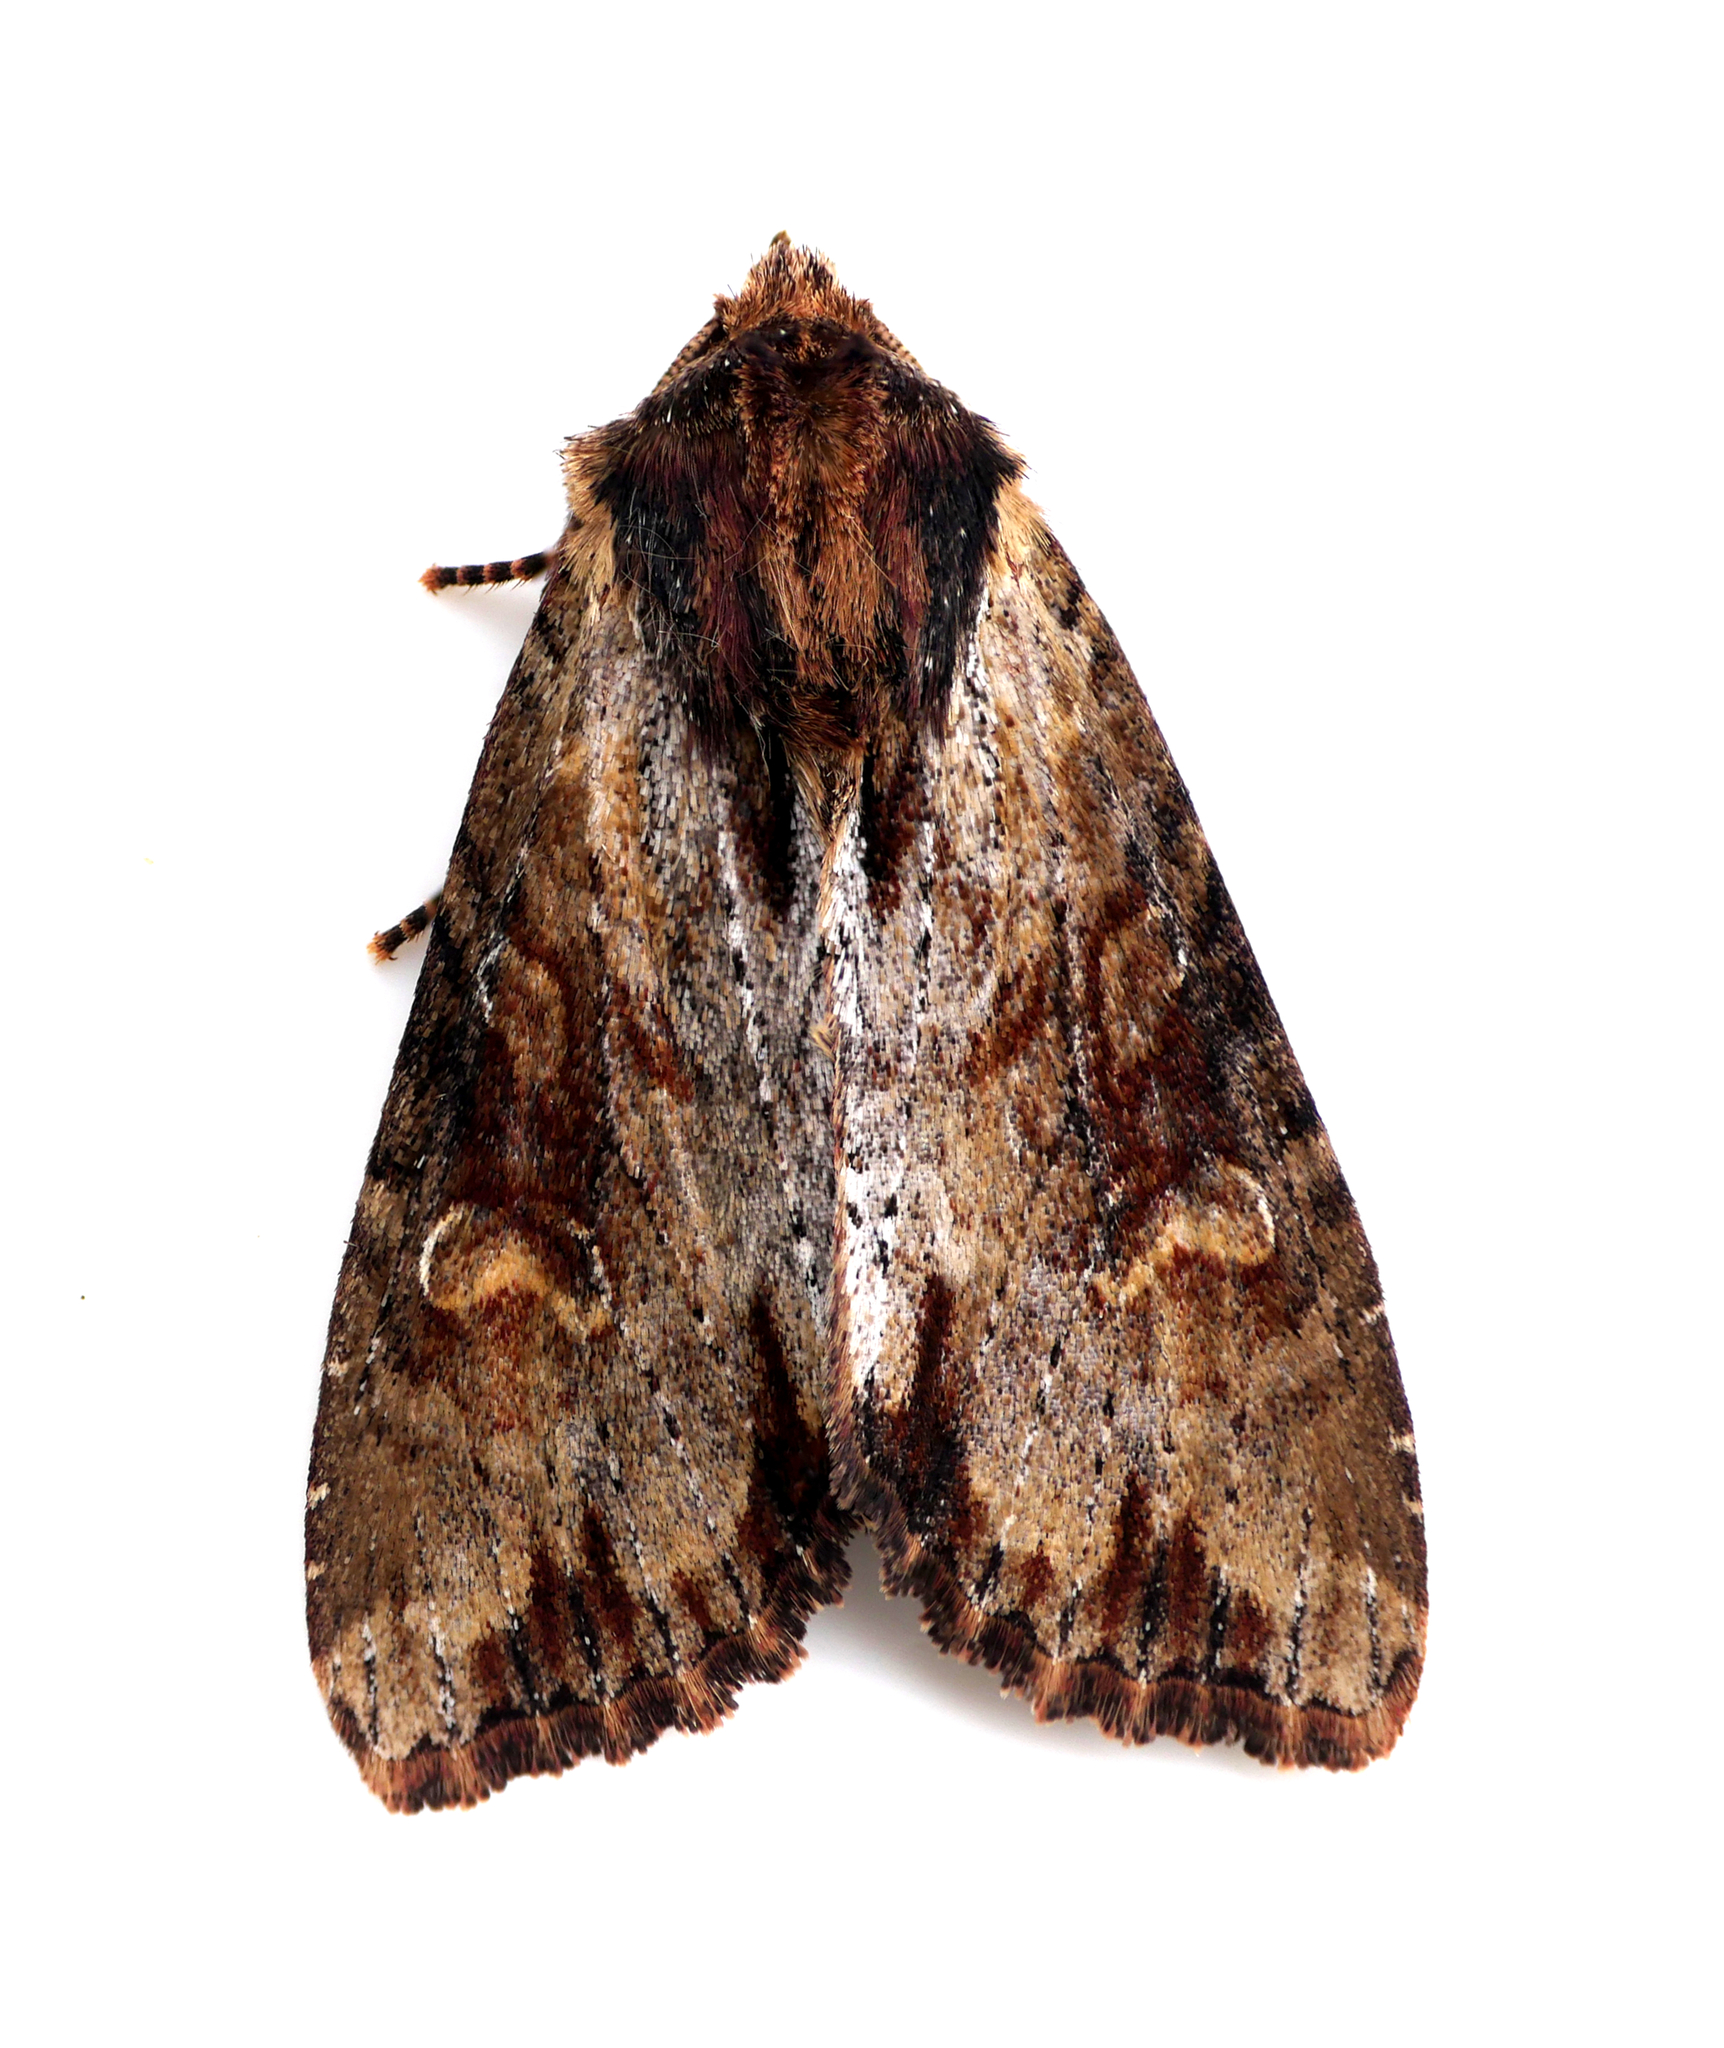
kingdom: Animalia
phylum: Arthropoda
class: Insecta
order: Lepidoptera
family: Noctuidae
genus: Apamea
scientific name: Apamea crenata
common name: Clouded-bordered brindle
